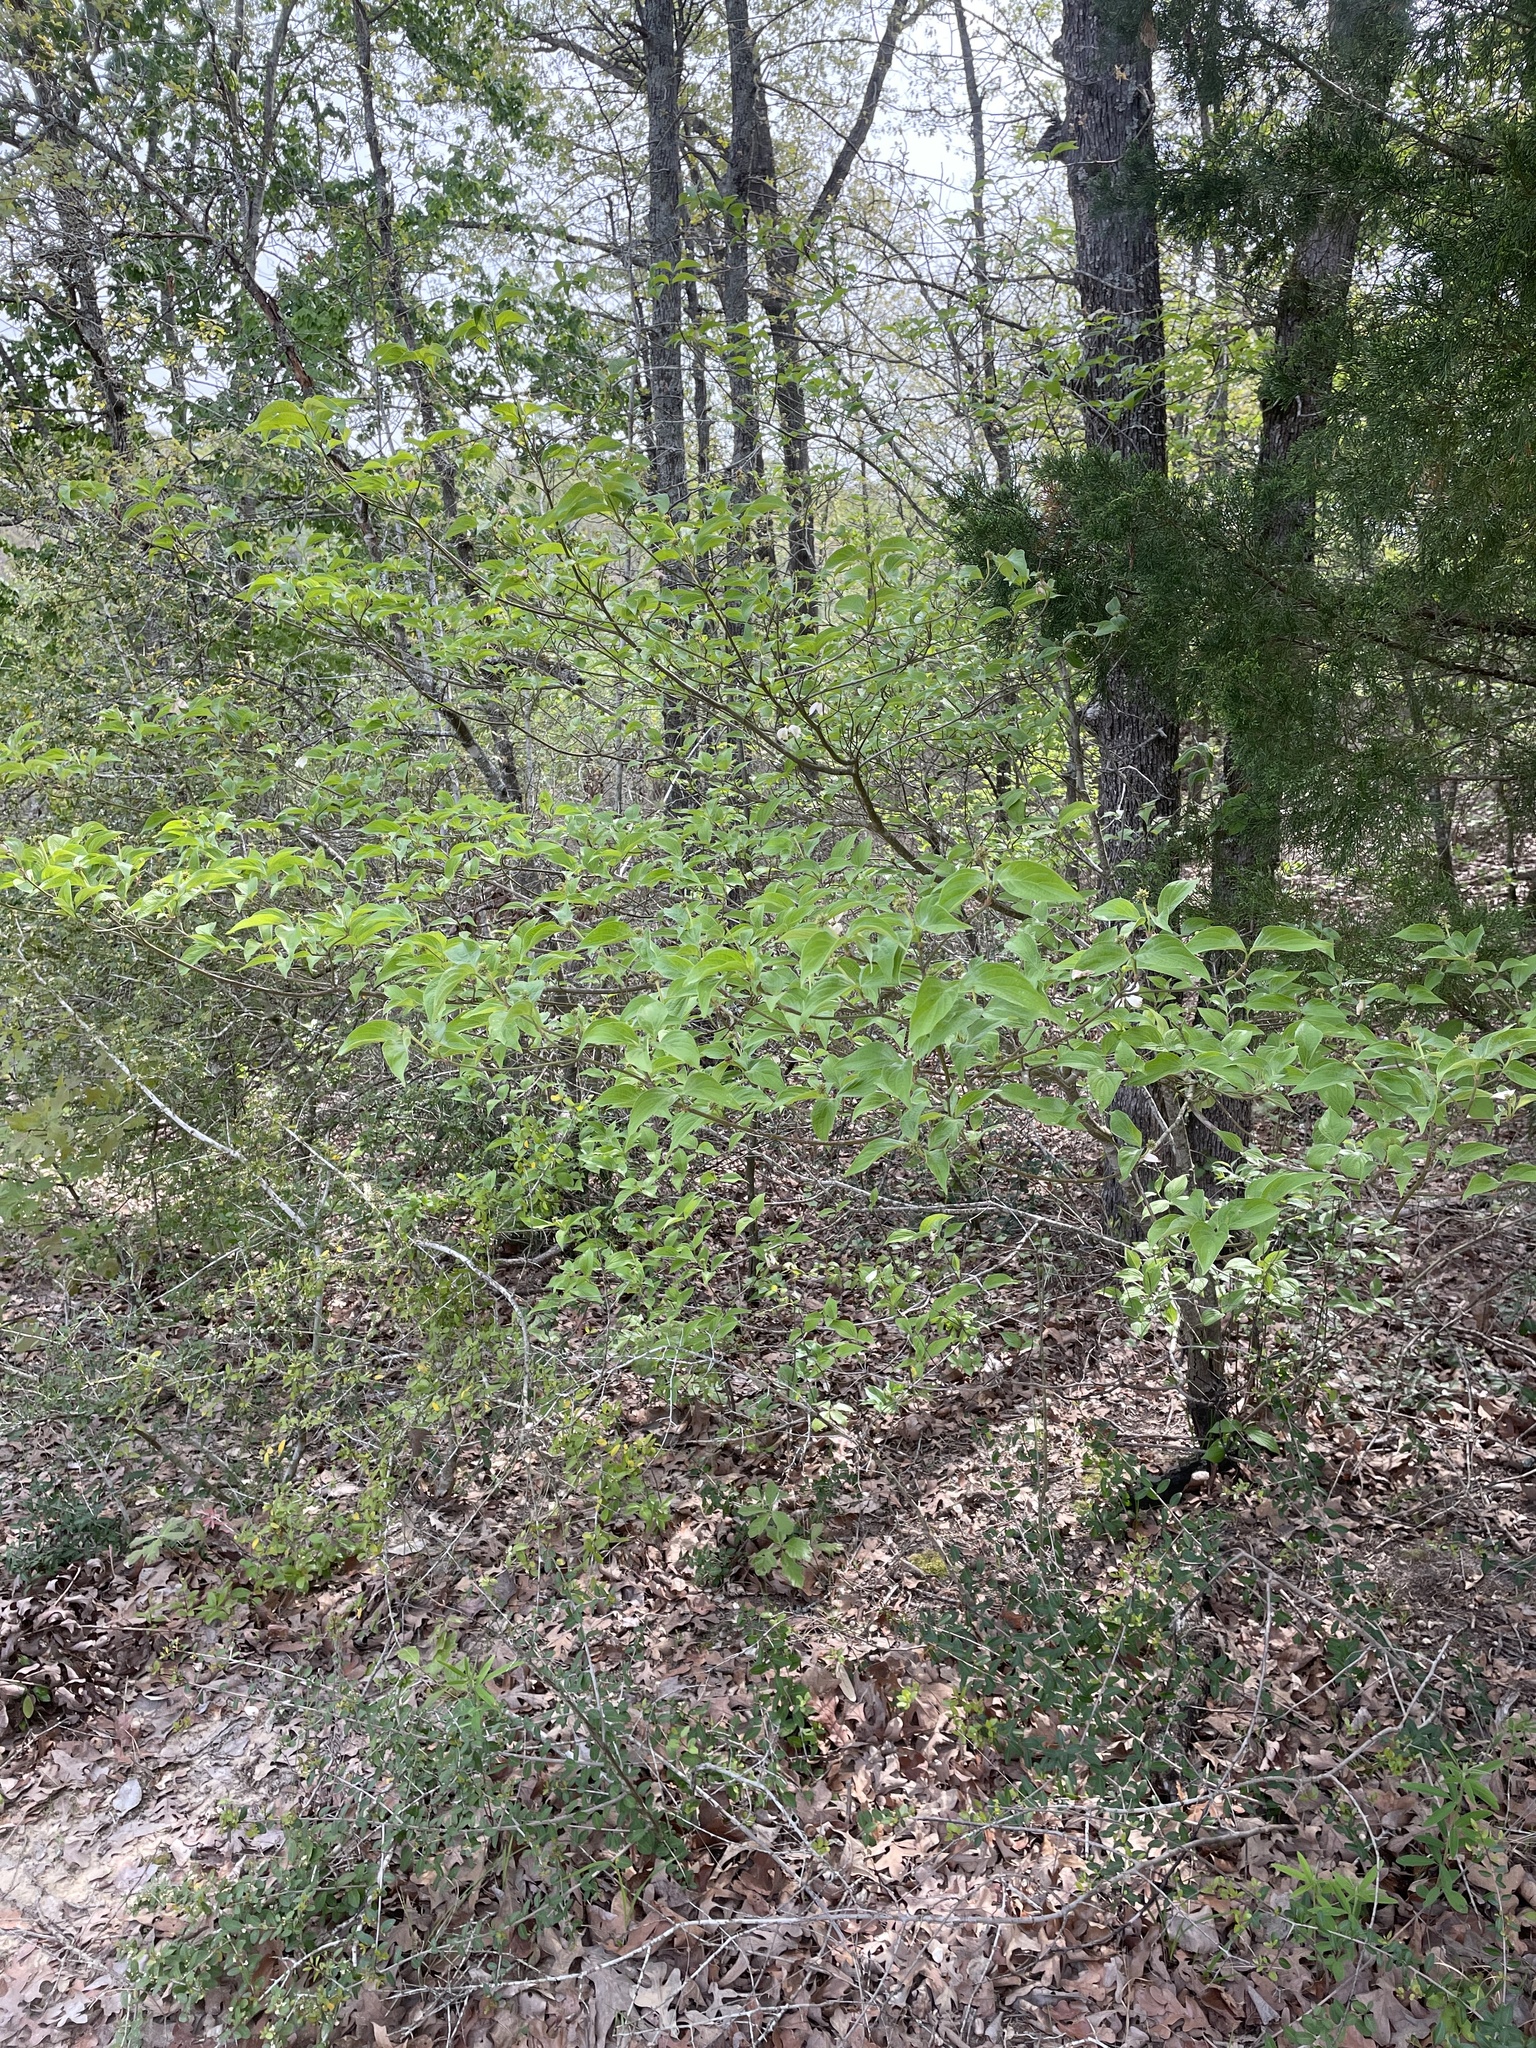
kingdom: Plantae
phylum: Tracheophyta
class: Magnoliopsida
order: Cornales
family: Cornaceae
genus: Cornus
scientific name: Cornus florida
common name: Flowering dogwood
